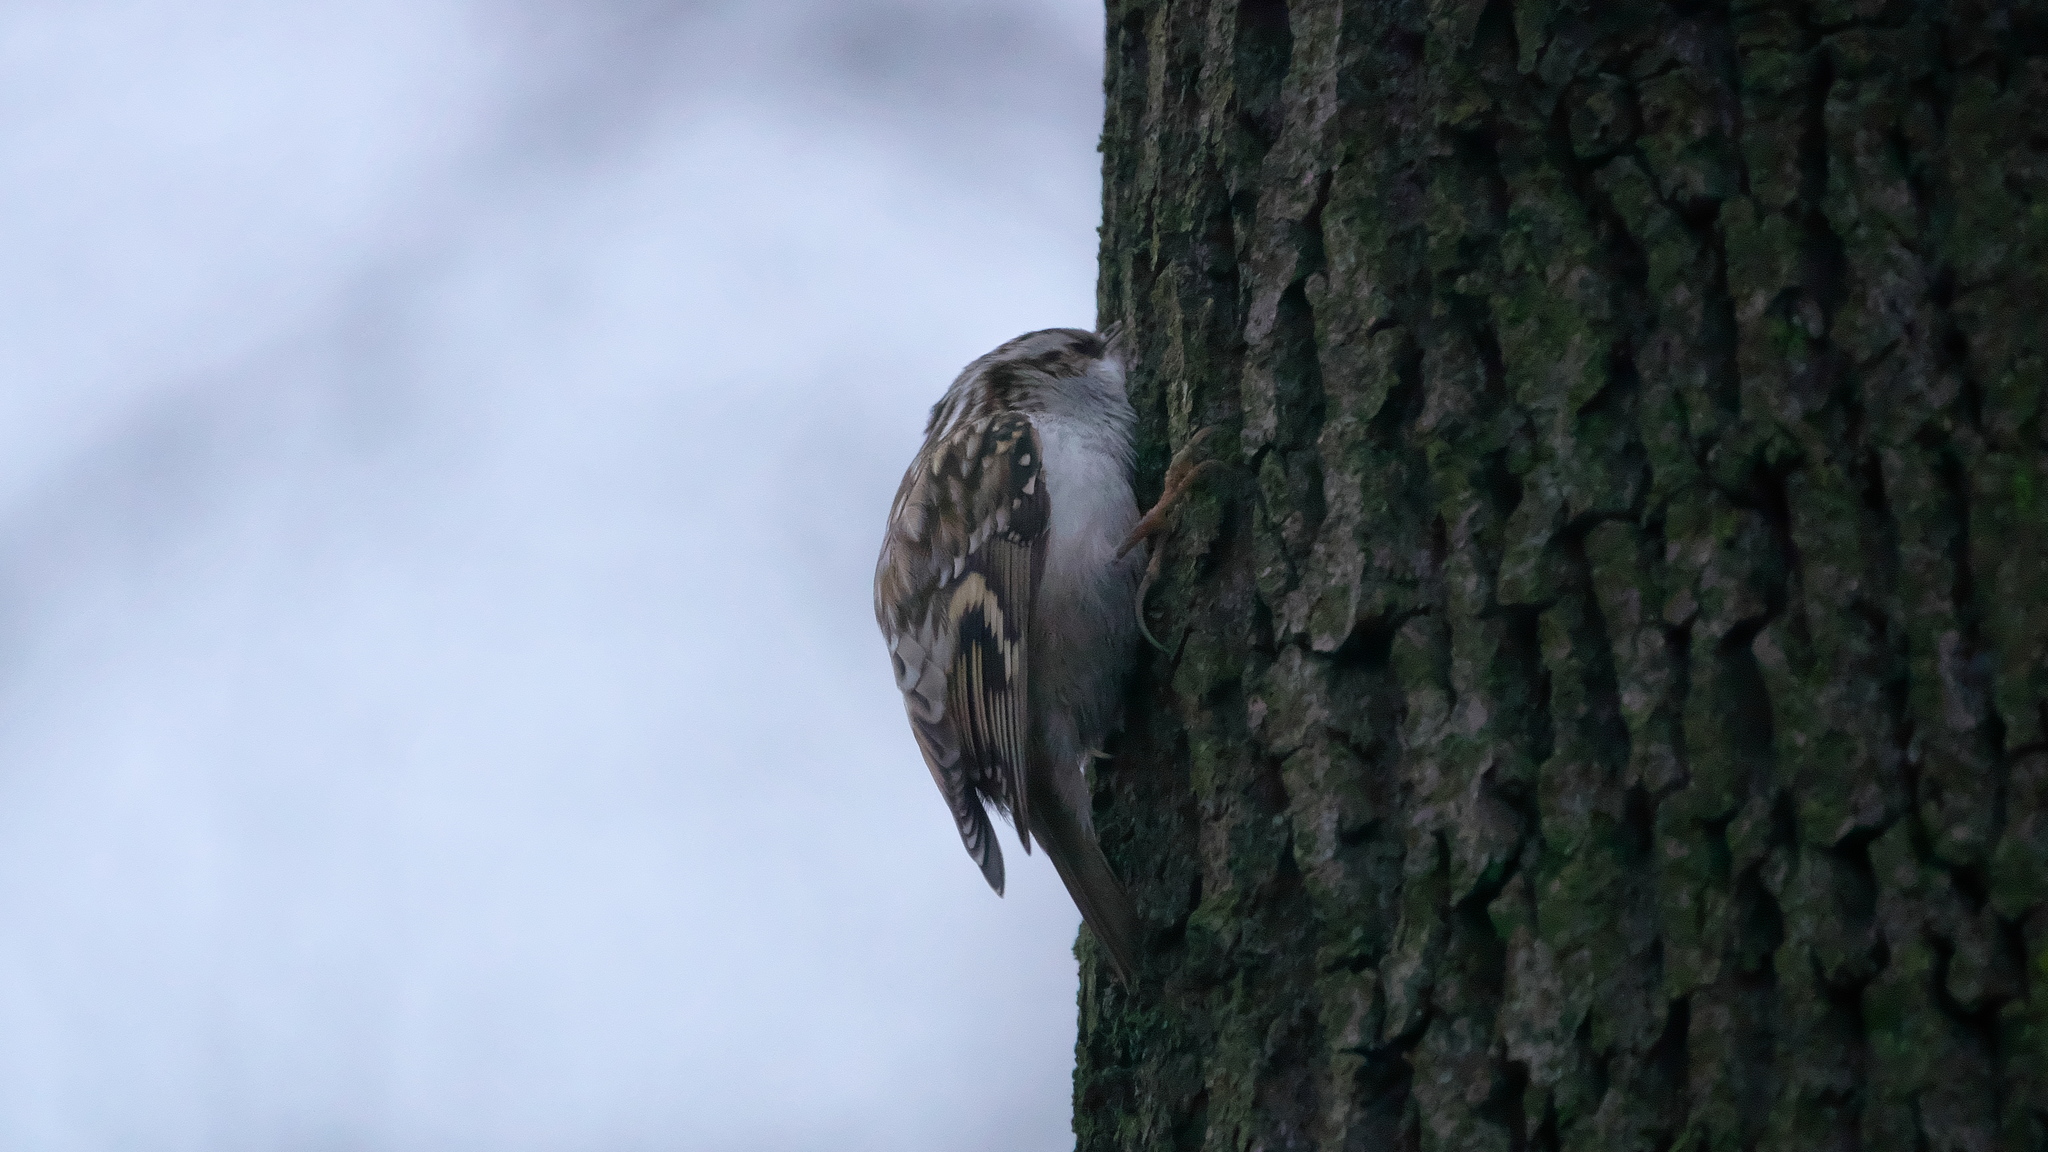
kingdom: Animalia
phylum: Chordata
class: Aves
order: Passeriformes
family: Certhiidae
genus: Certhia
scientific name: Certhia familiaris
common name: Eurasian treecreeper
